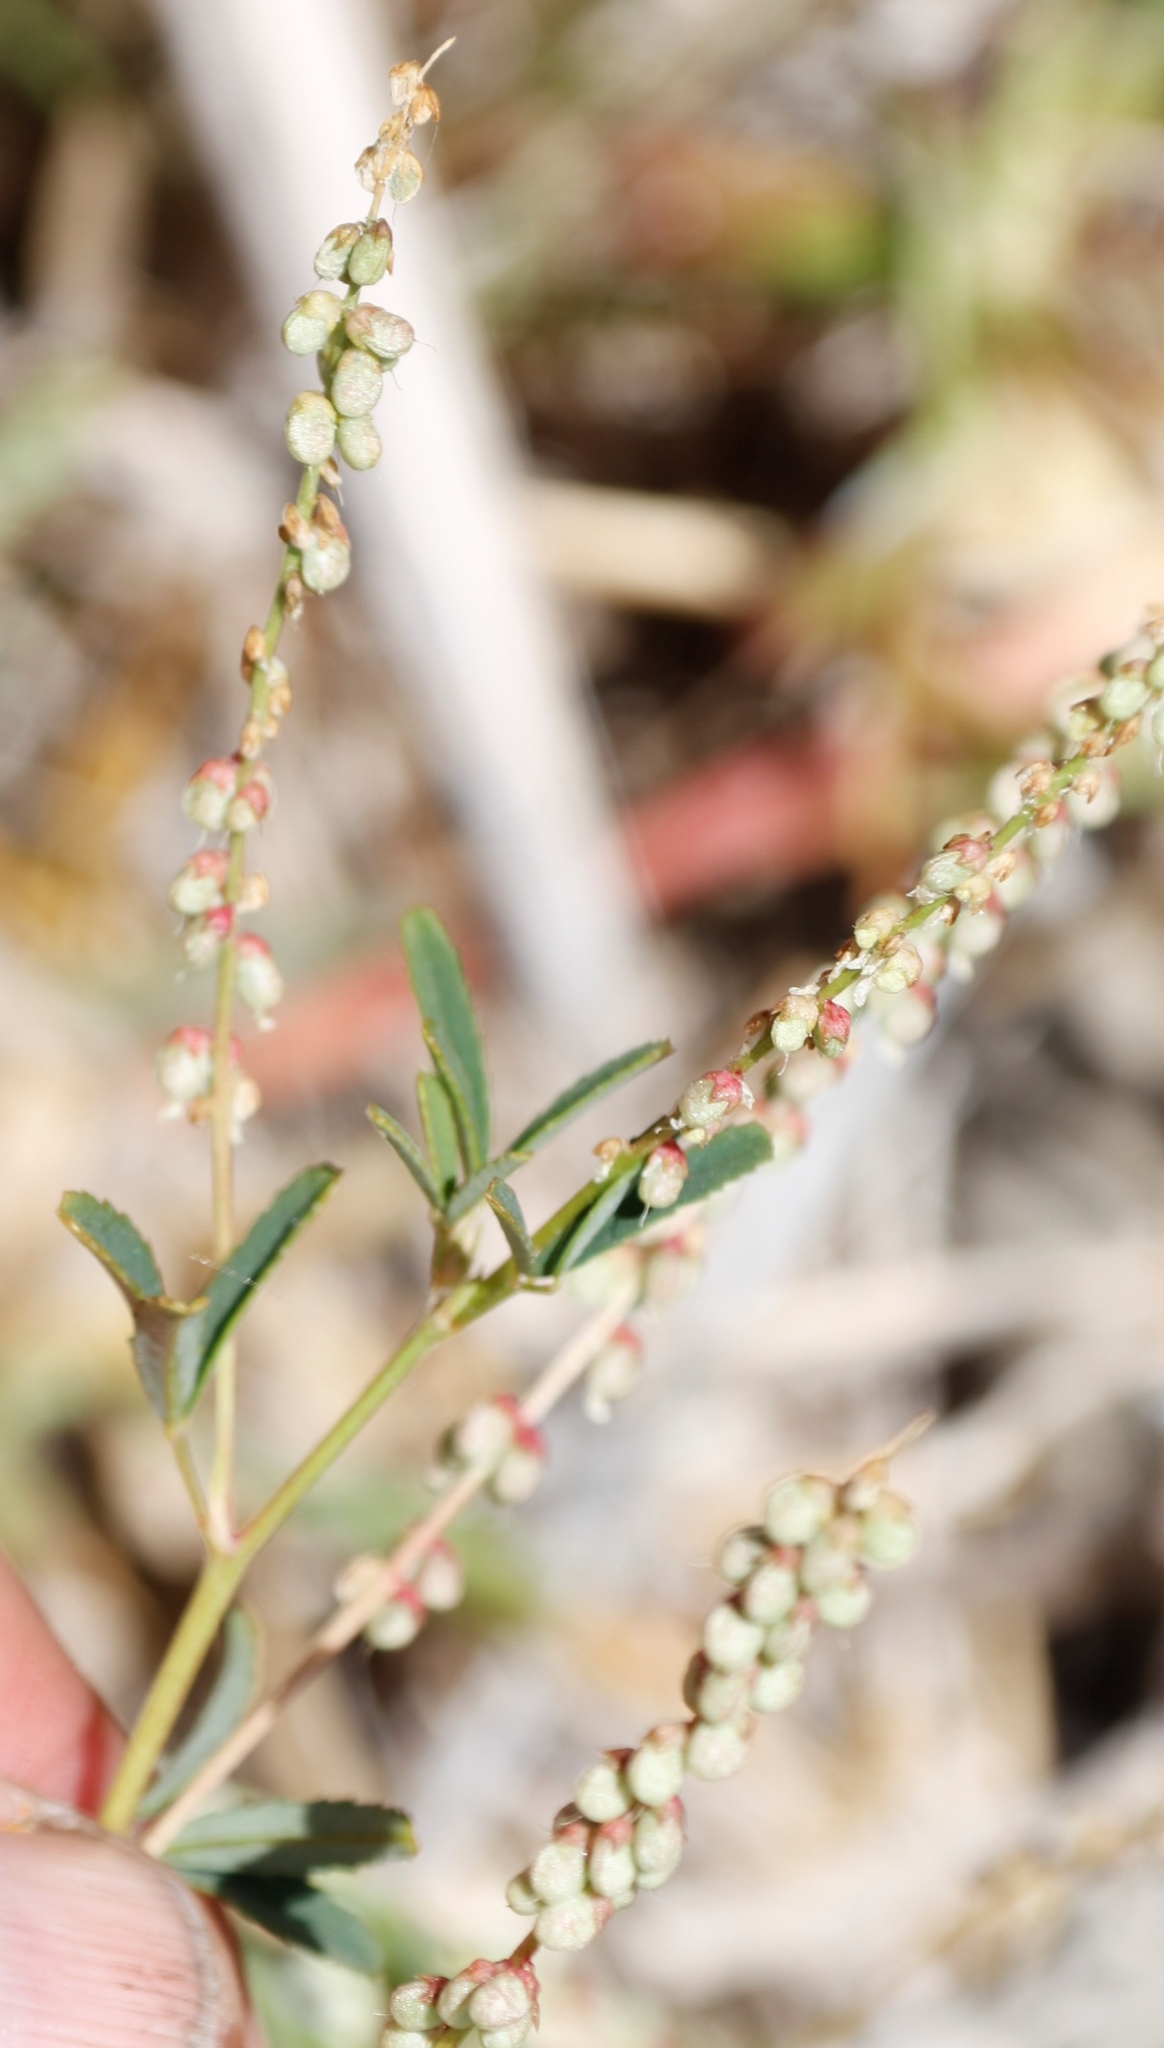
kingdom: Plantae
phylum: Tracheophyta
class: Magnoliopsida
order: Fabales
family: Fabaceae
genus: Melilotus
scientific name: Melilotus indicus
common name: Small melilot
